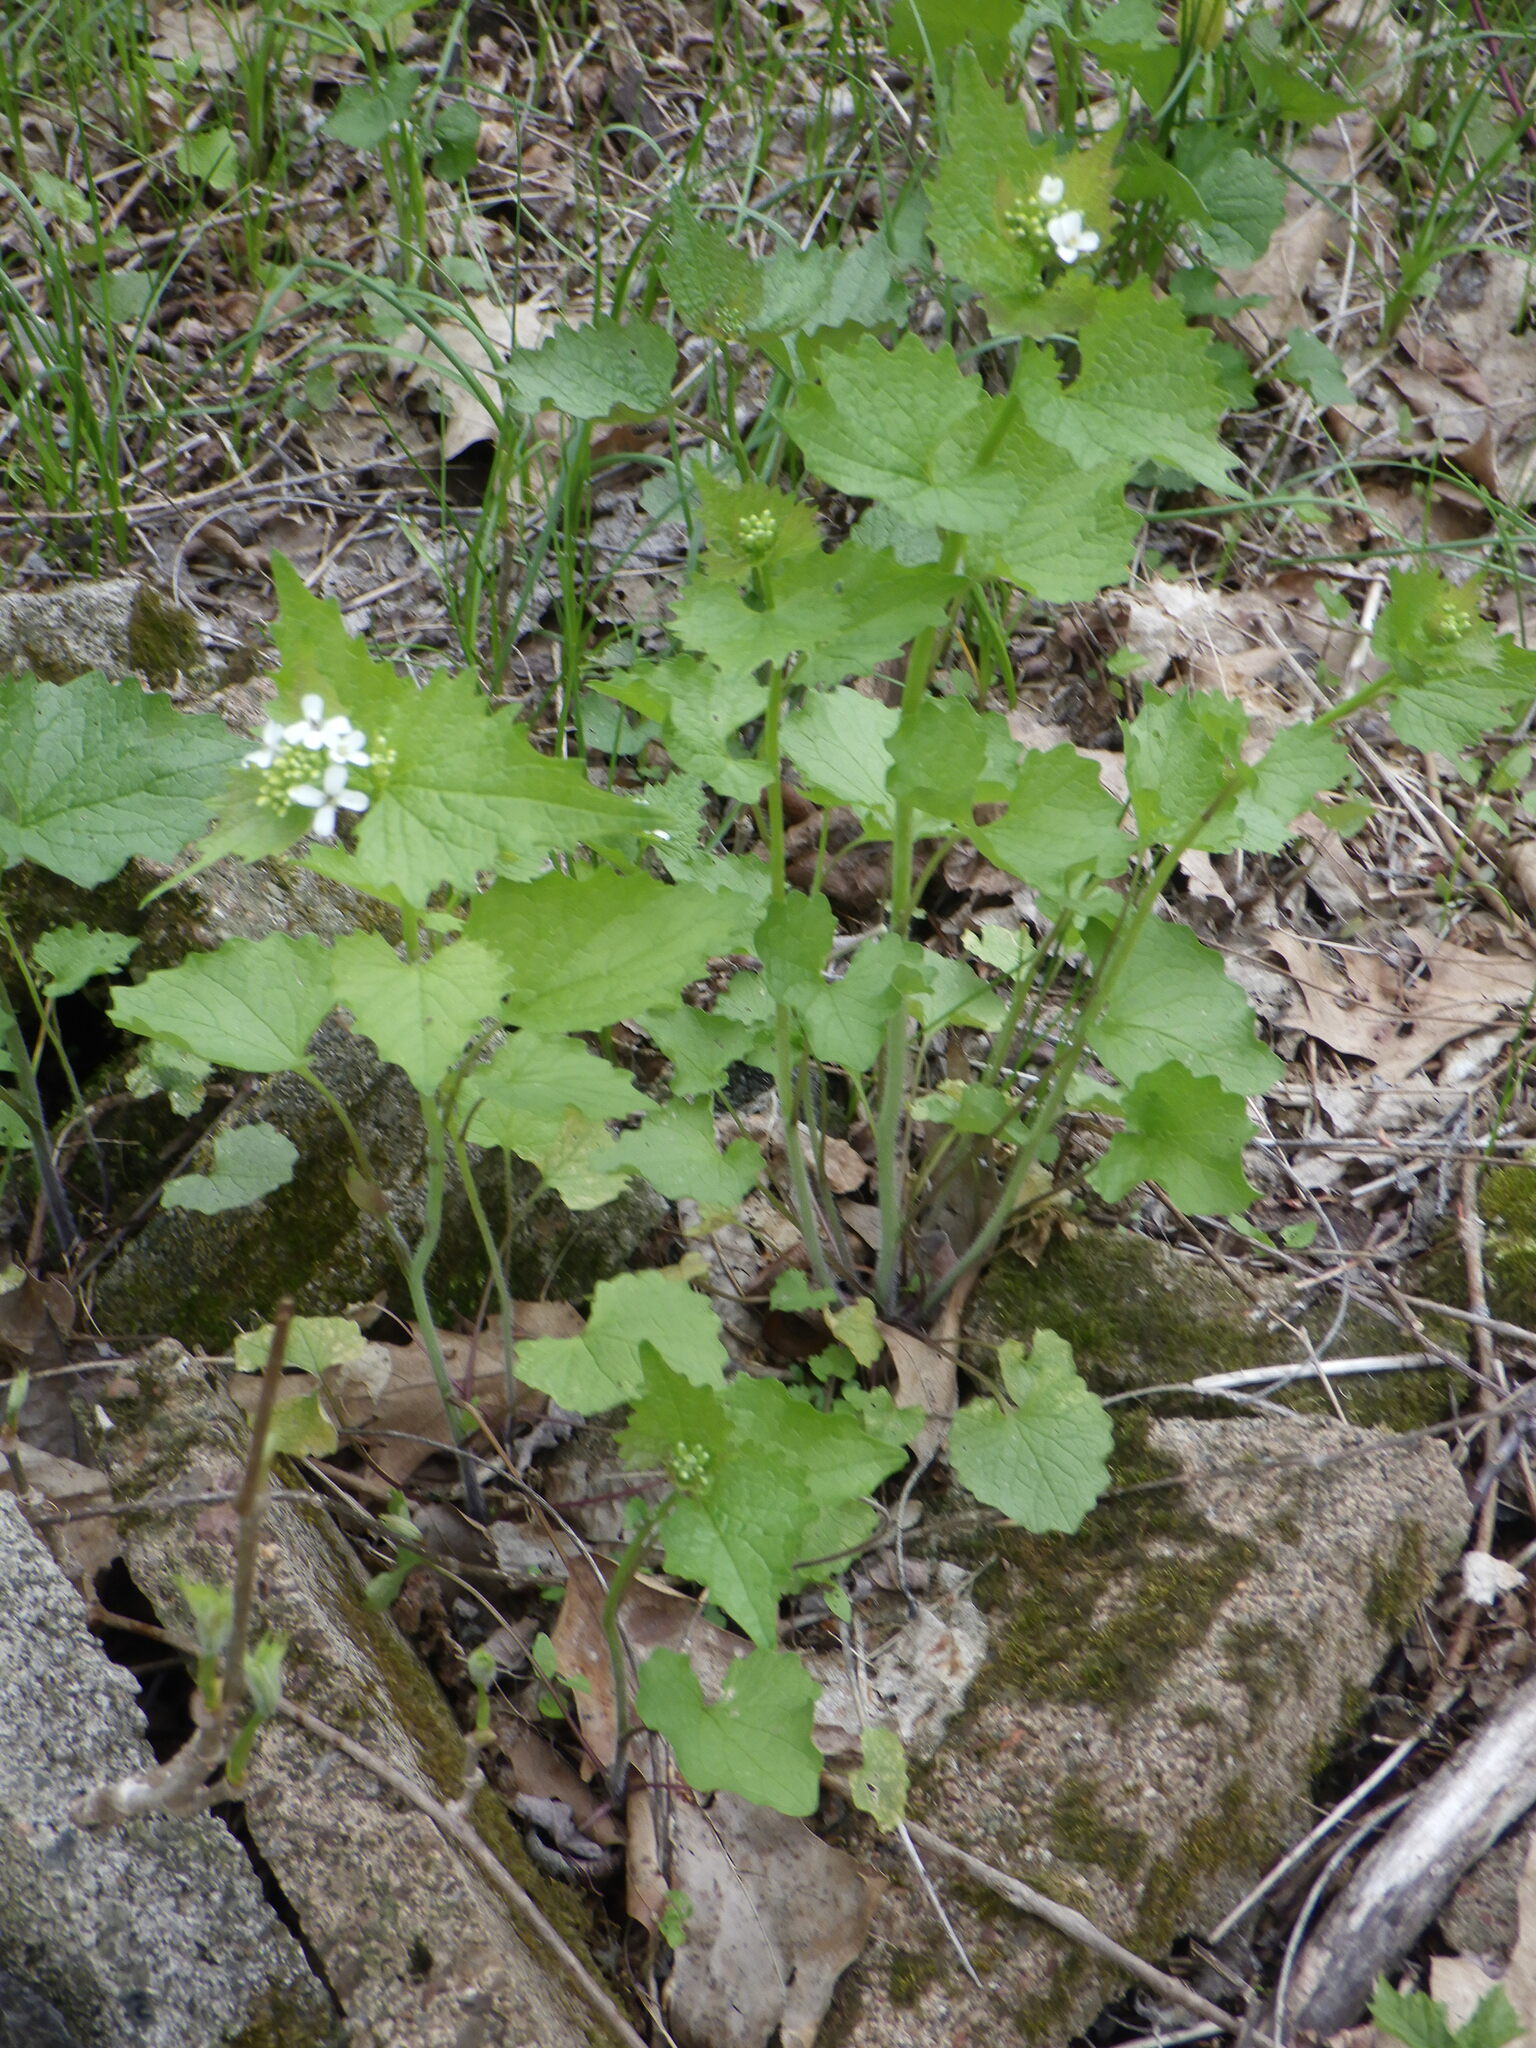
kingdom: Plantae
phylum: Tracheophyta
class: Magnoliopsida
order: Brassicales
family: Brassicaceae
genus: Alliaria
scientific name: Alliaria petiolata
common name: Garlic mustard
